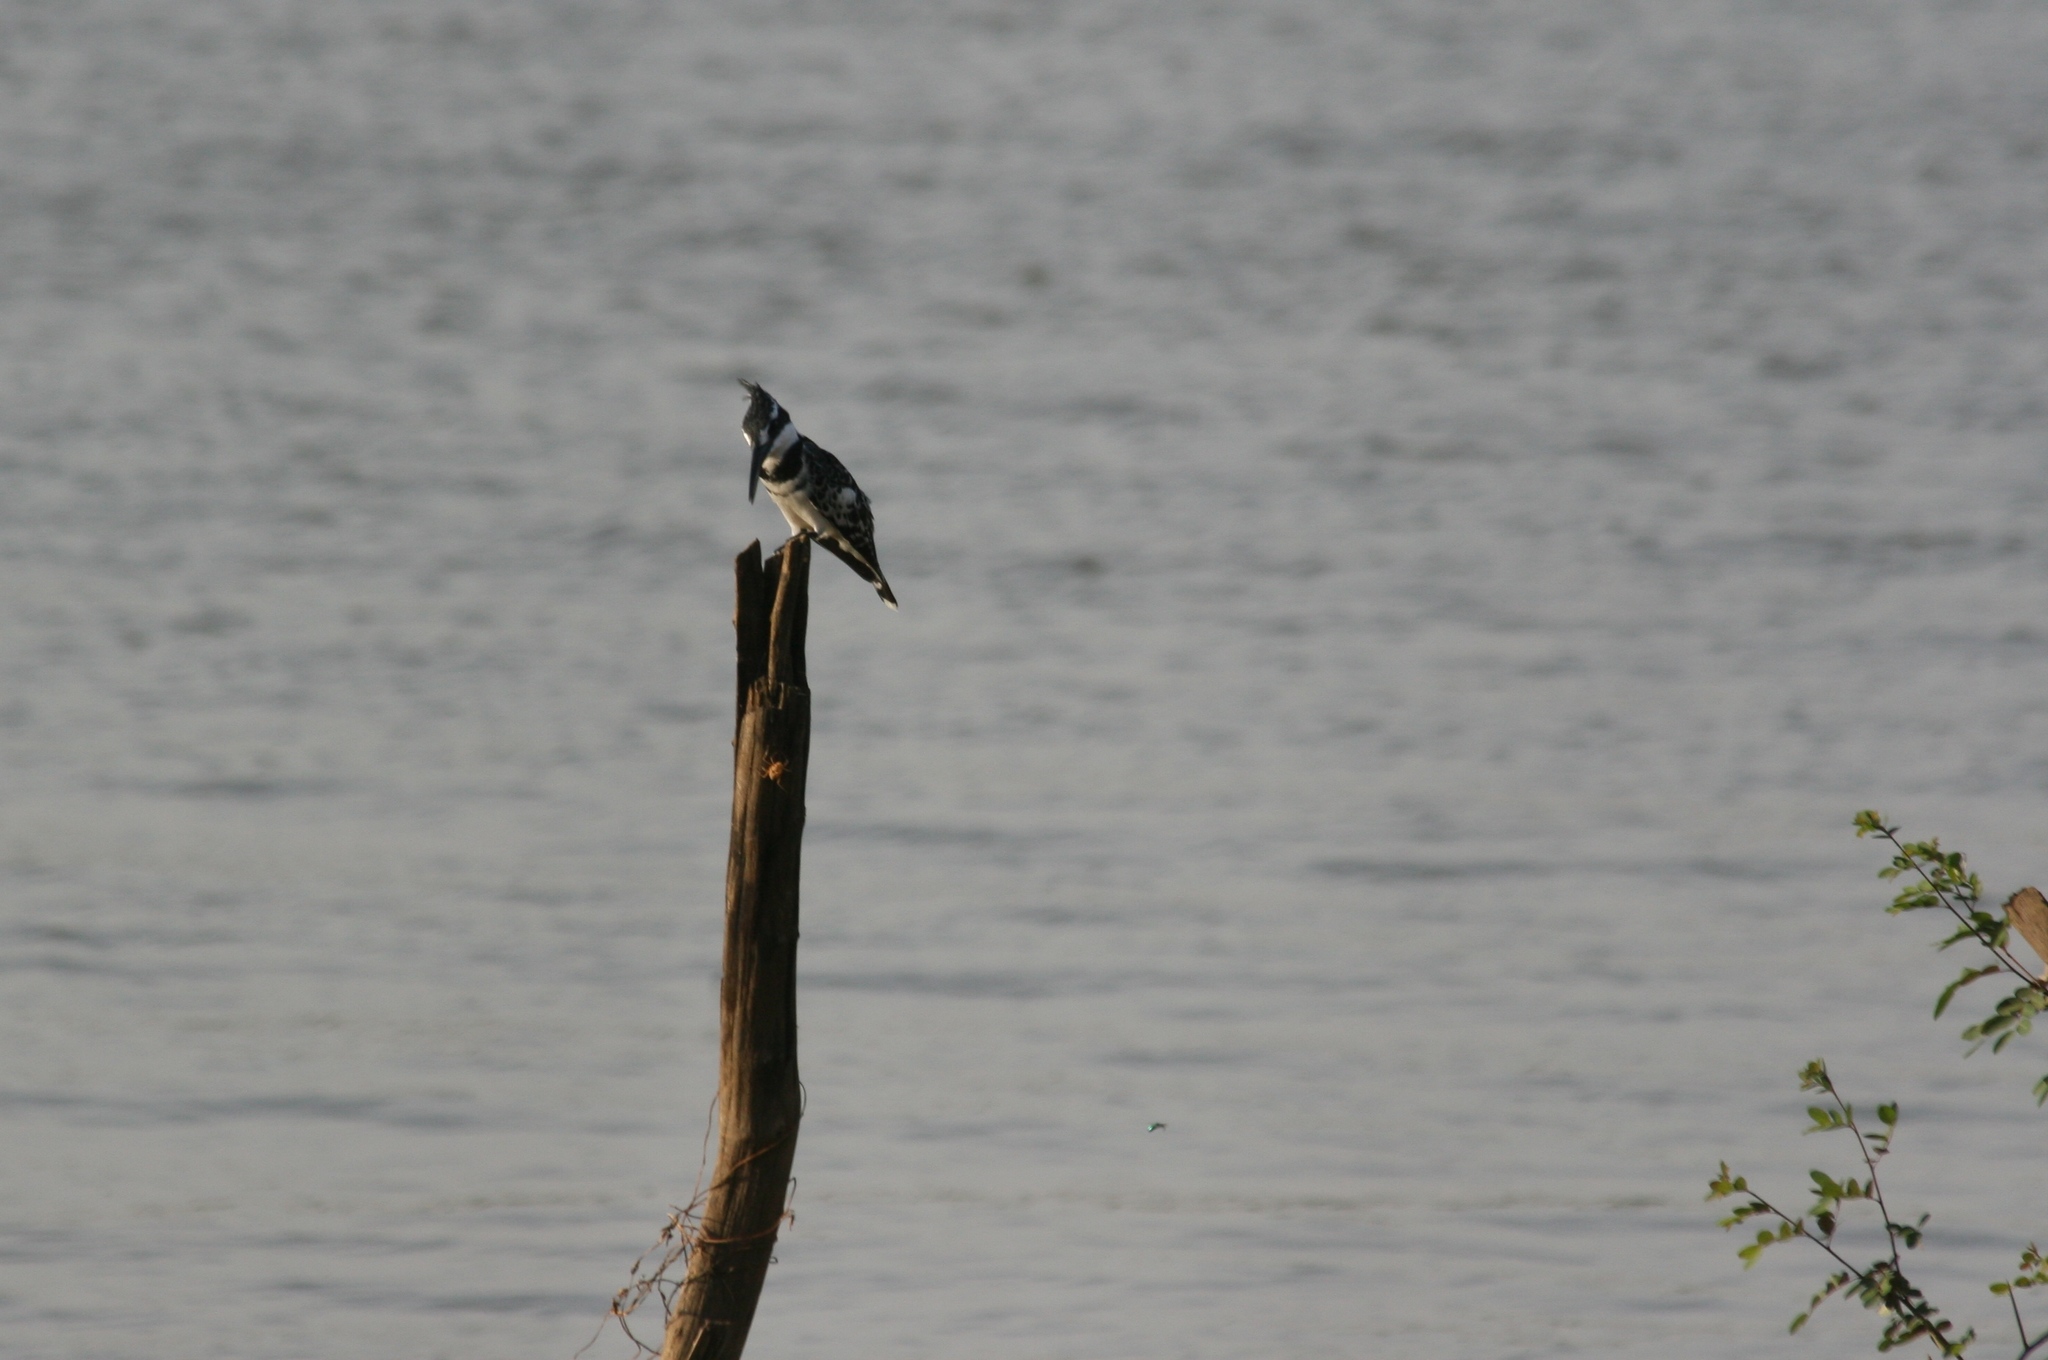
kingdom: Animalia
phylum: Chordata
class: Aves
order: Coraciiformes
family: Alcedinidae
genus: Ceryle
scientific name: Ceryle rudis
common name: Pied kingfisher
